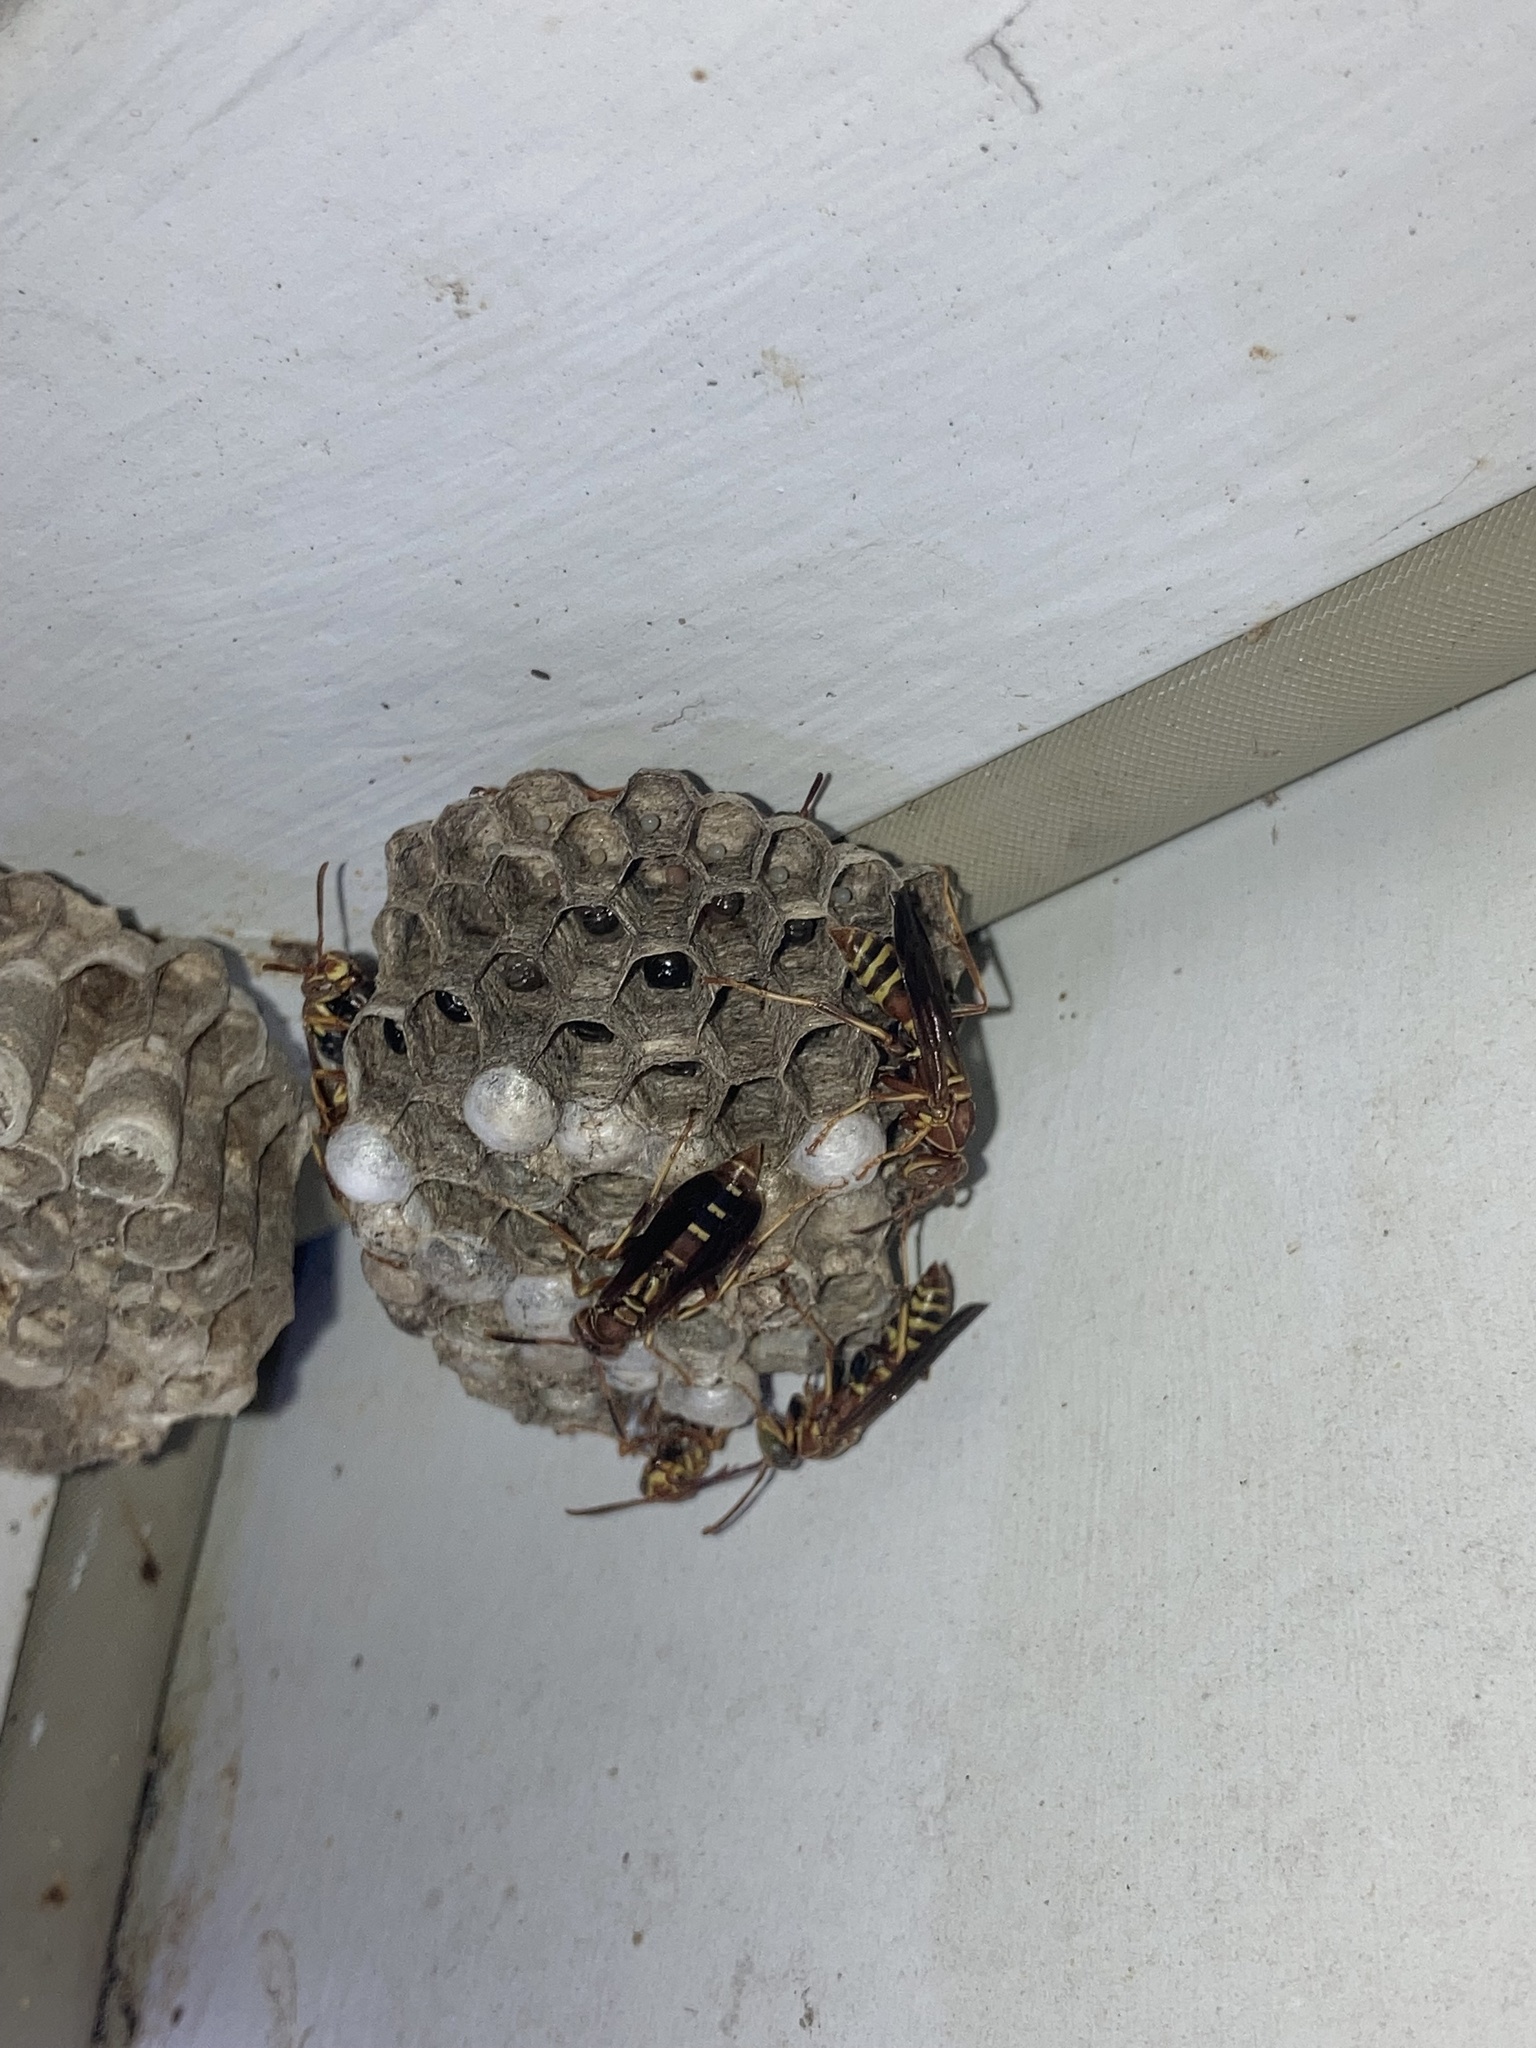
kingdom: Animalia
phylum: Arthropoda
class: Insecta
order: Hymenoptera
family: Eumenidae
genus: Polistes
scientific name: Polistes dorsalis
